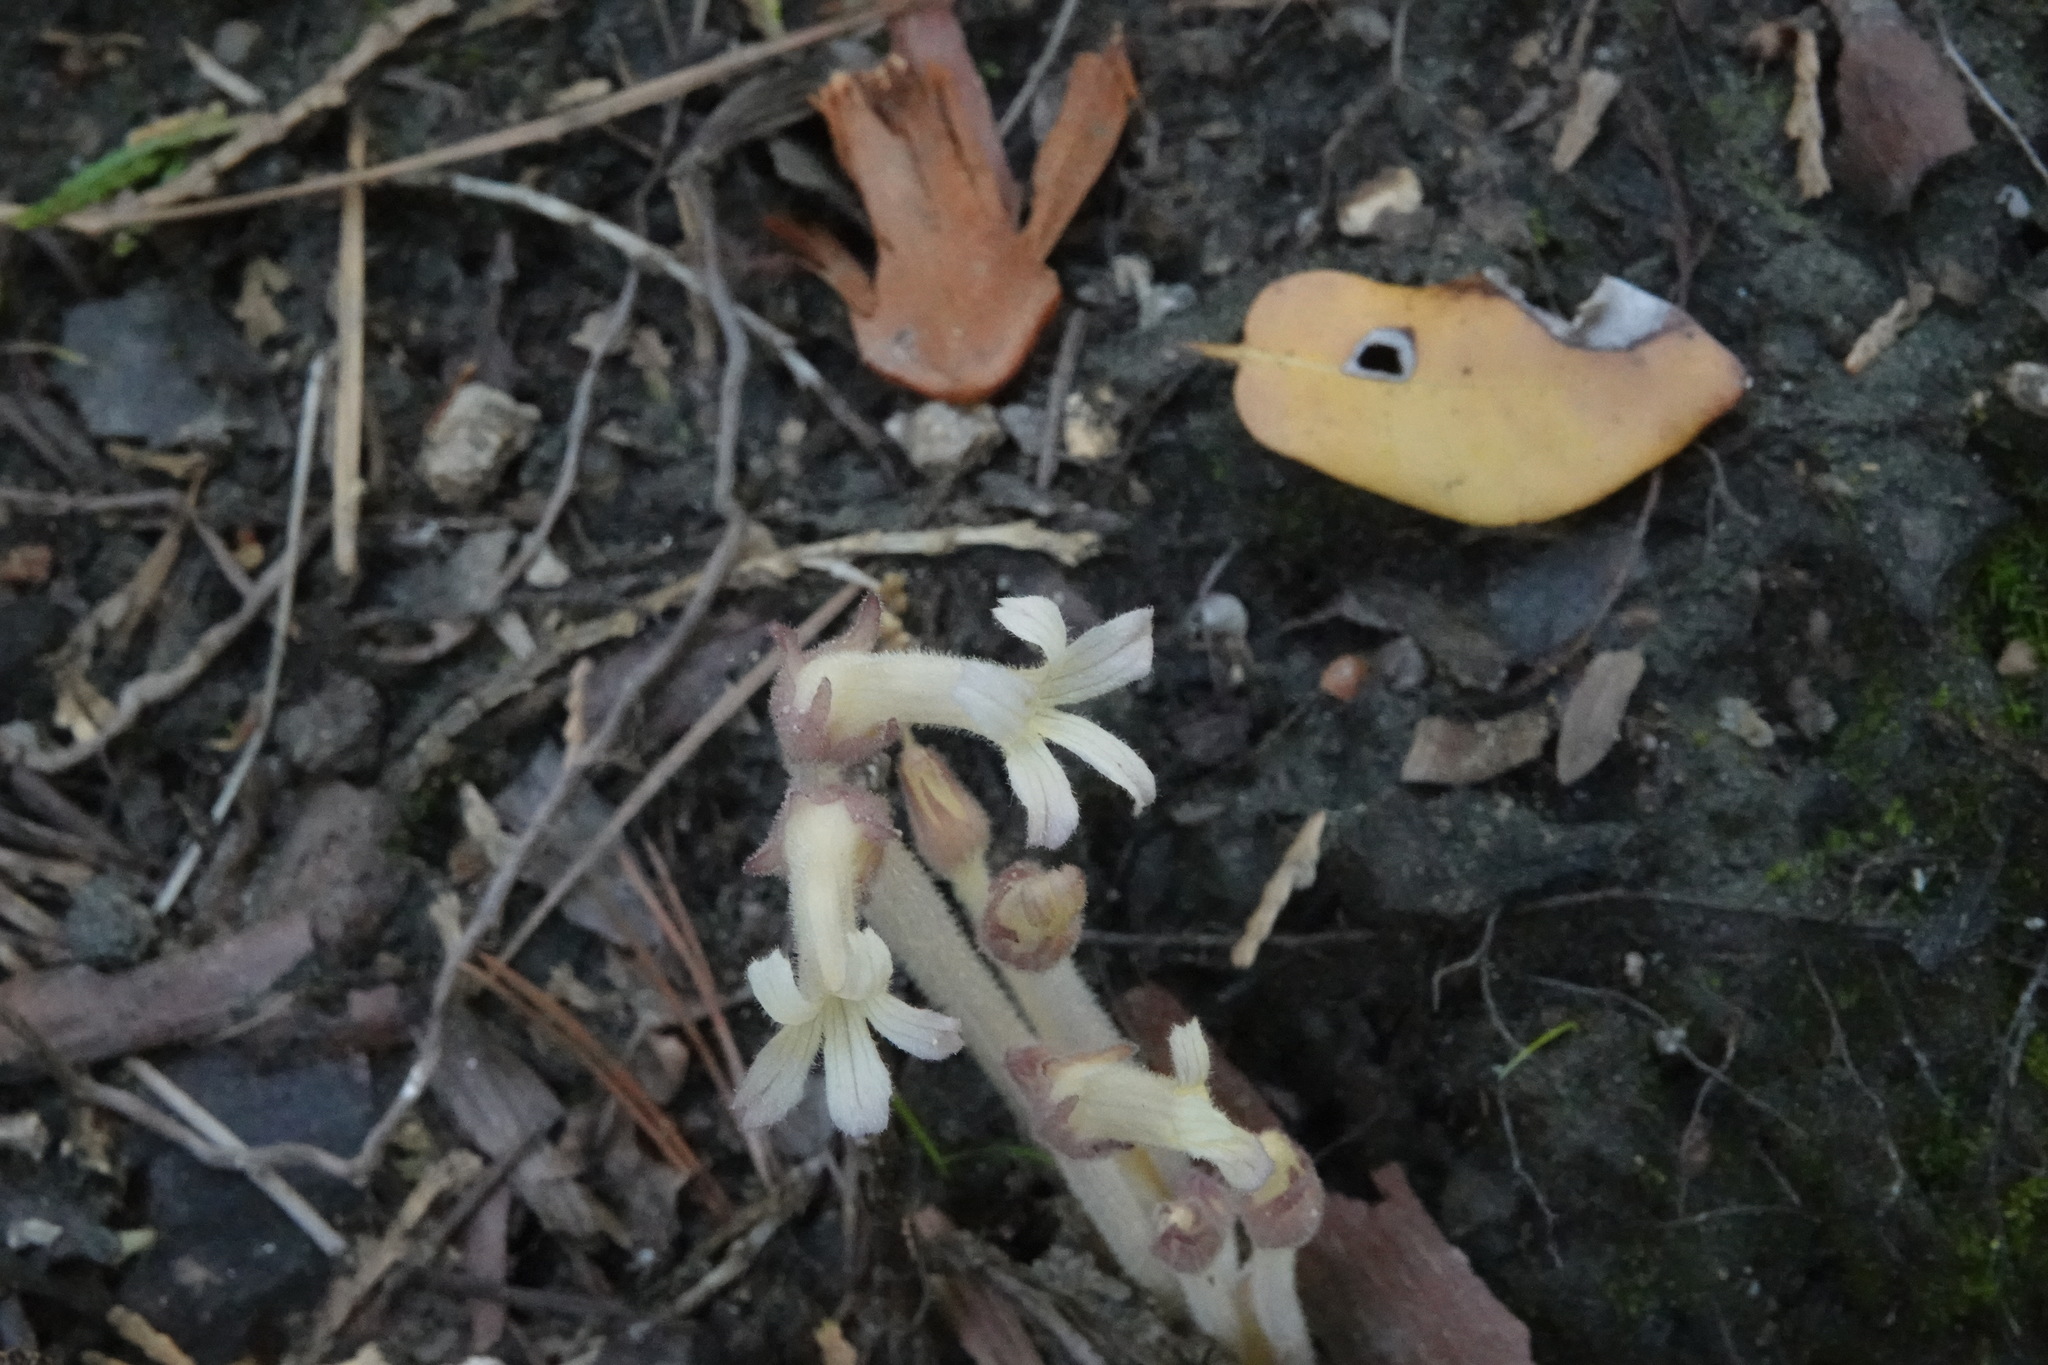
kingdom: Plantae
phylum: Tracheophyta
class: Magnoliopsida
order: Lamiales
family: Orobanchaceae
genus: Aphyllon
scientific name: Aphyllon franciscanum
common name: San francisco broomrape
